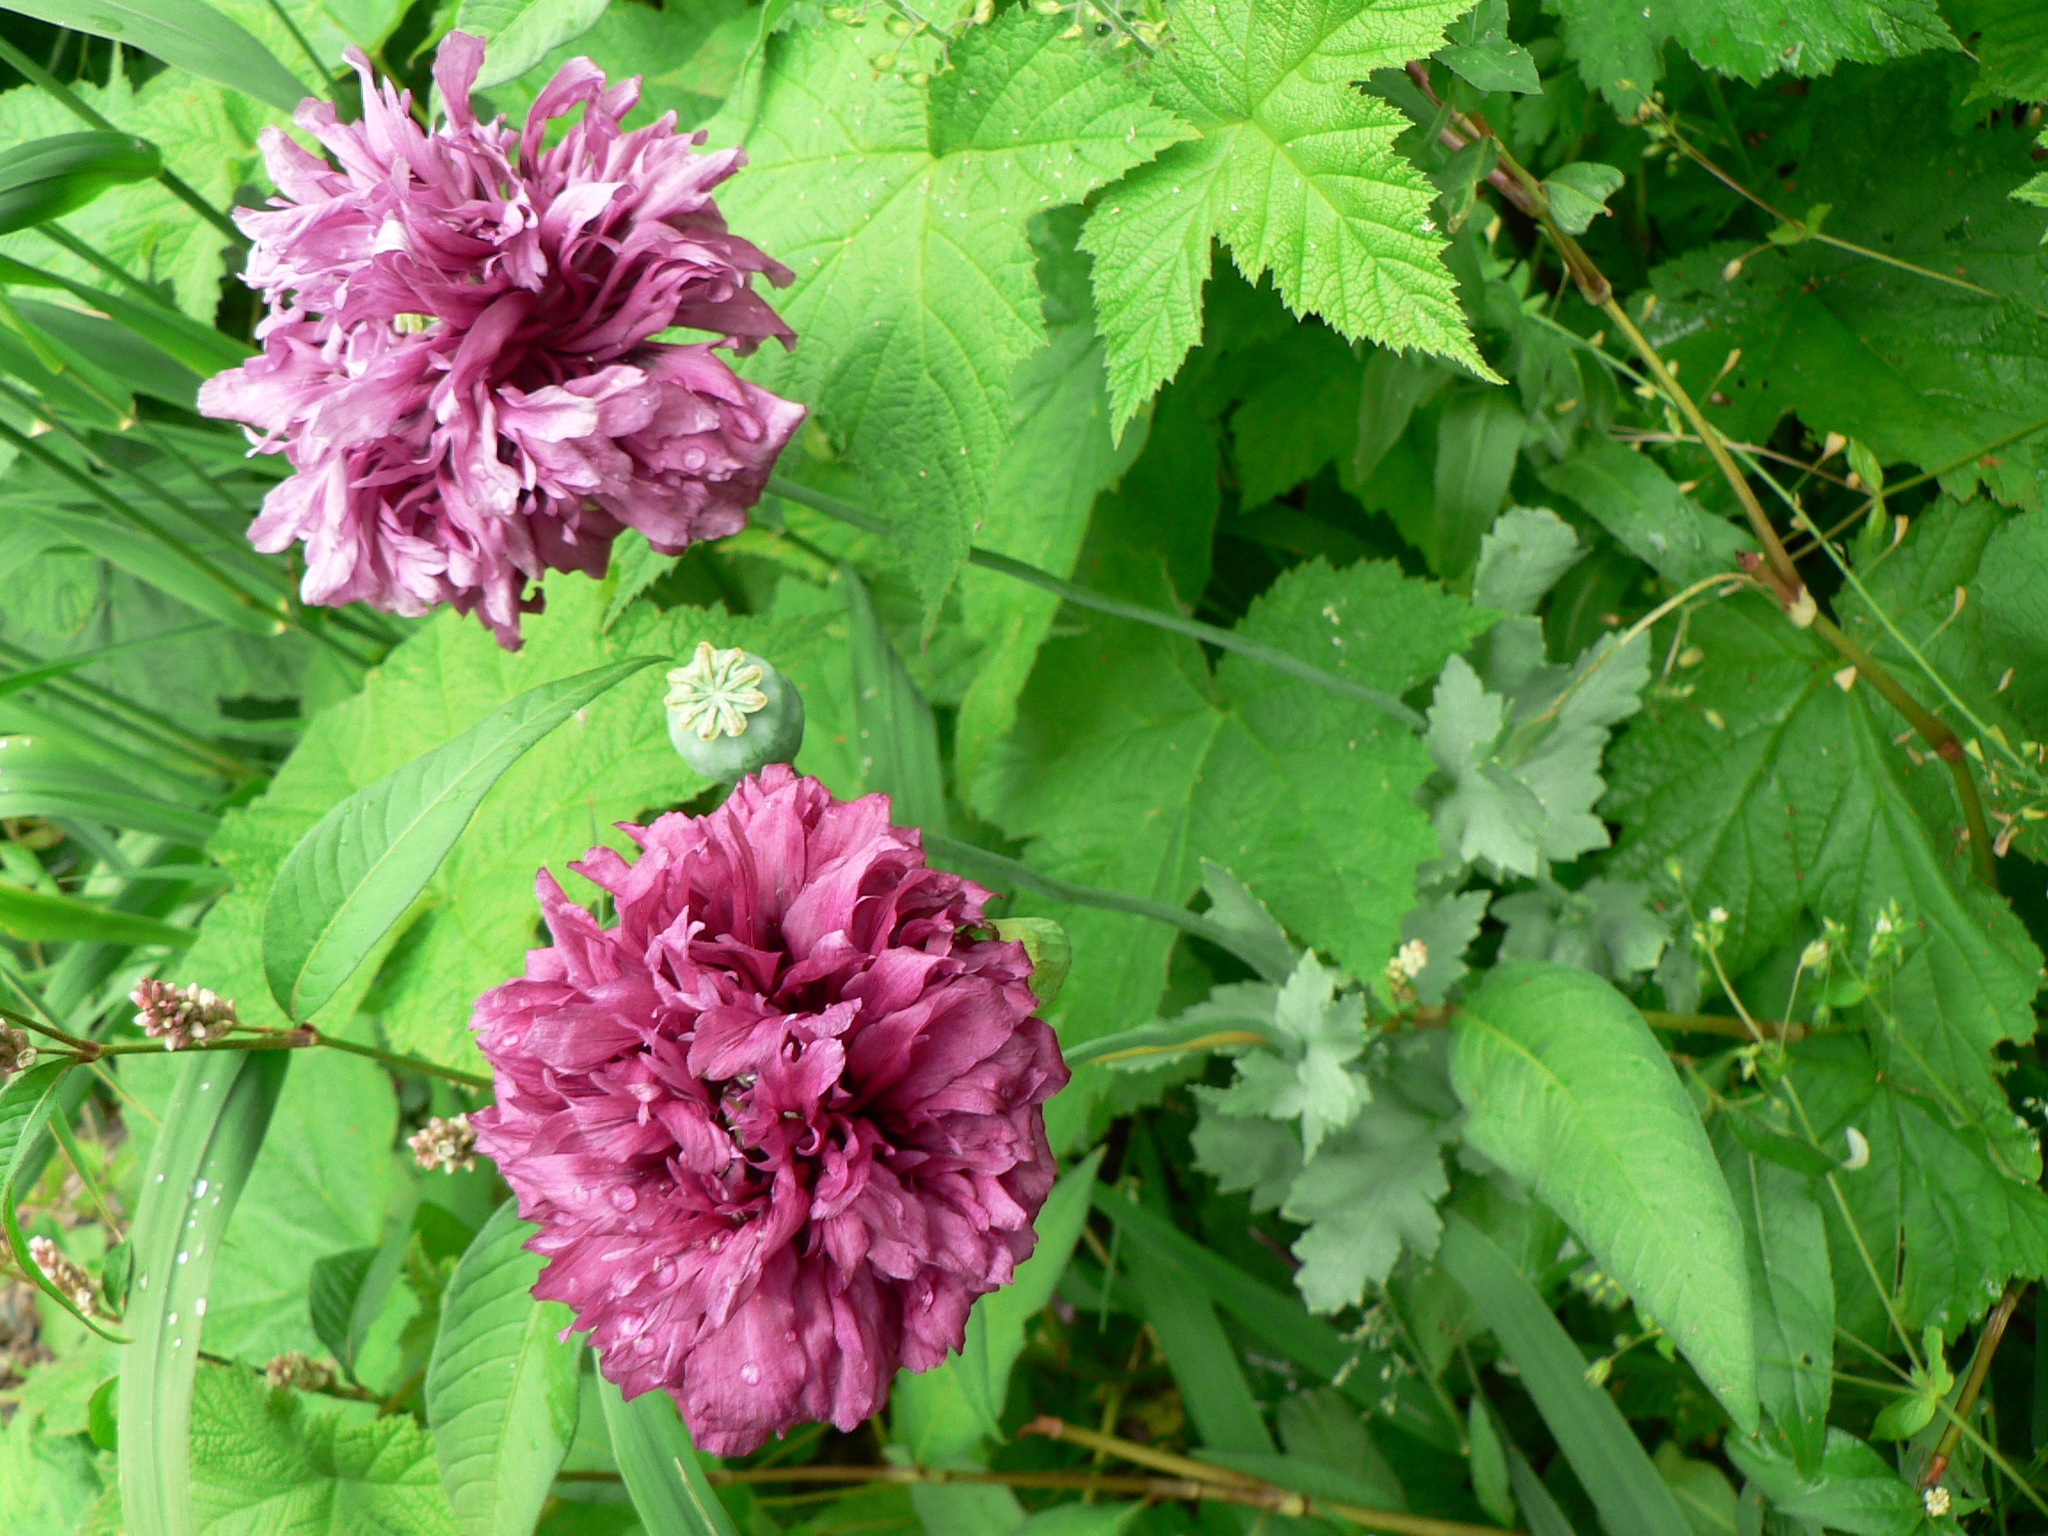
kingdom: Plantae
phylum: Tracheophyta
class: Magnoliopsida
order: Ranunculales
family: Papaveraceae
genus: Papaver
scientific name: Papaver somniferum
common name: Opium poppy
